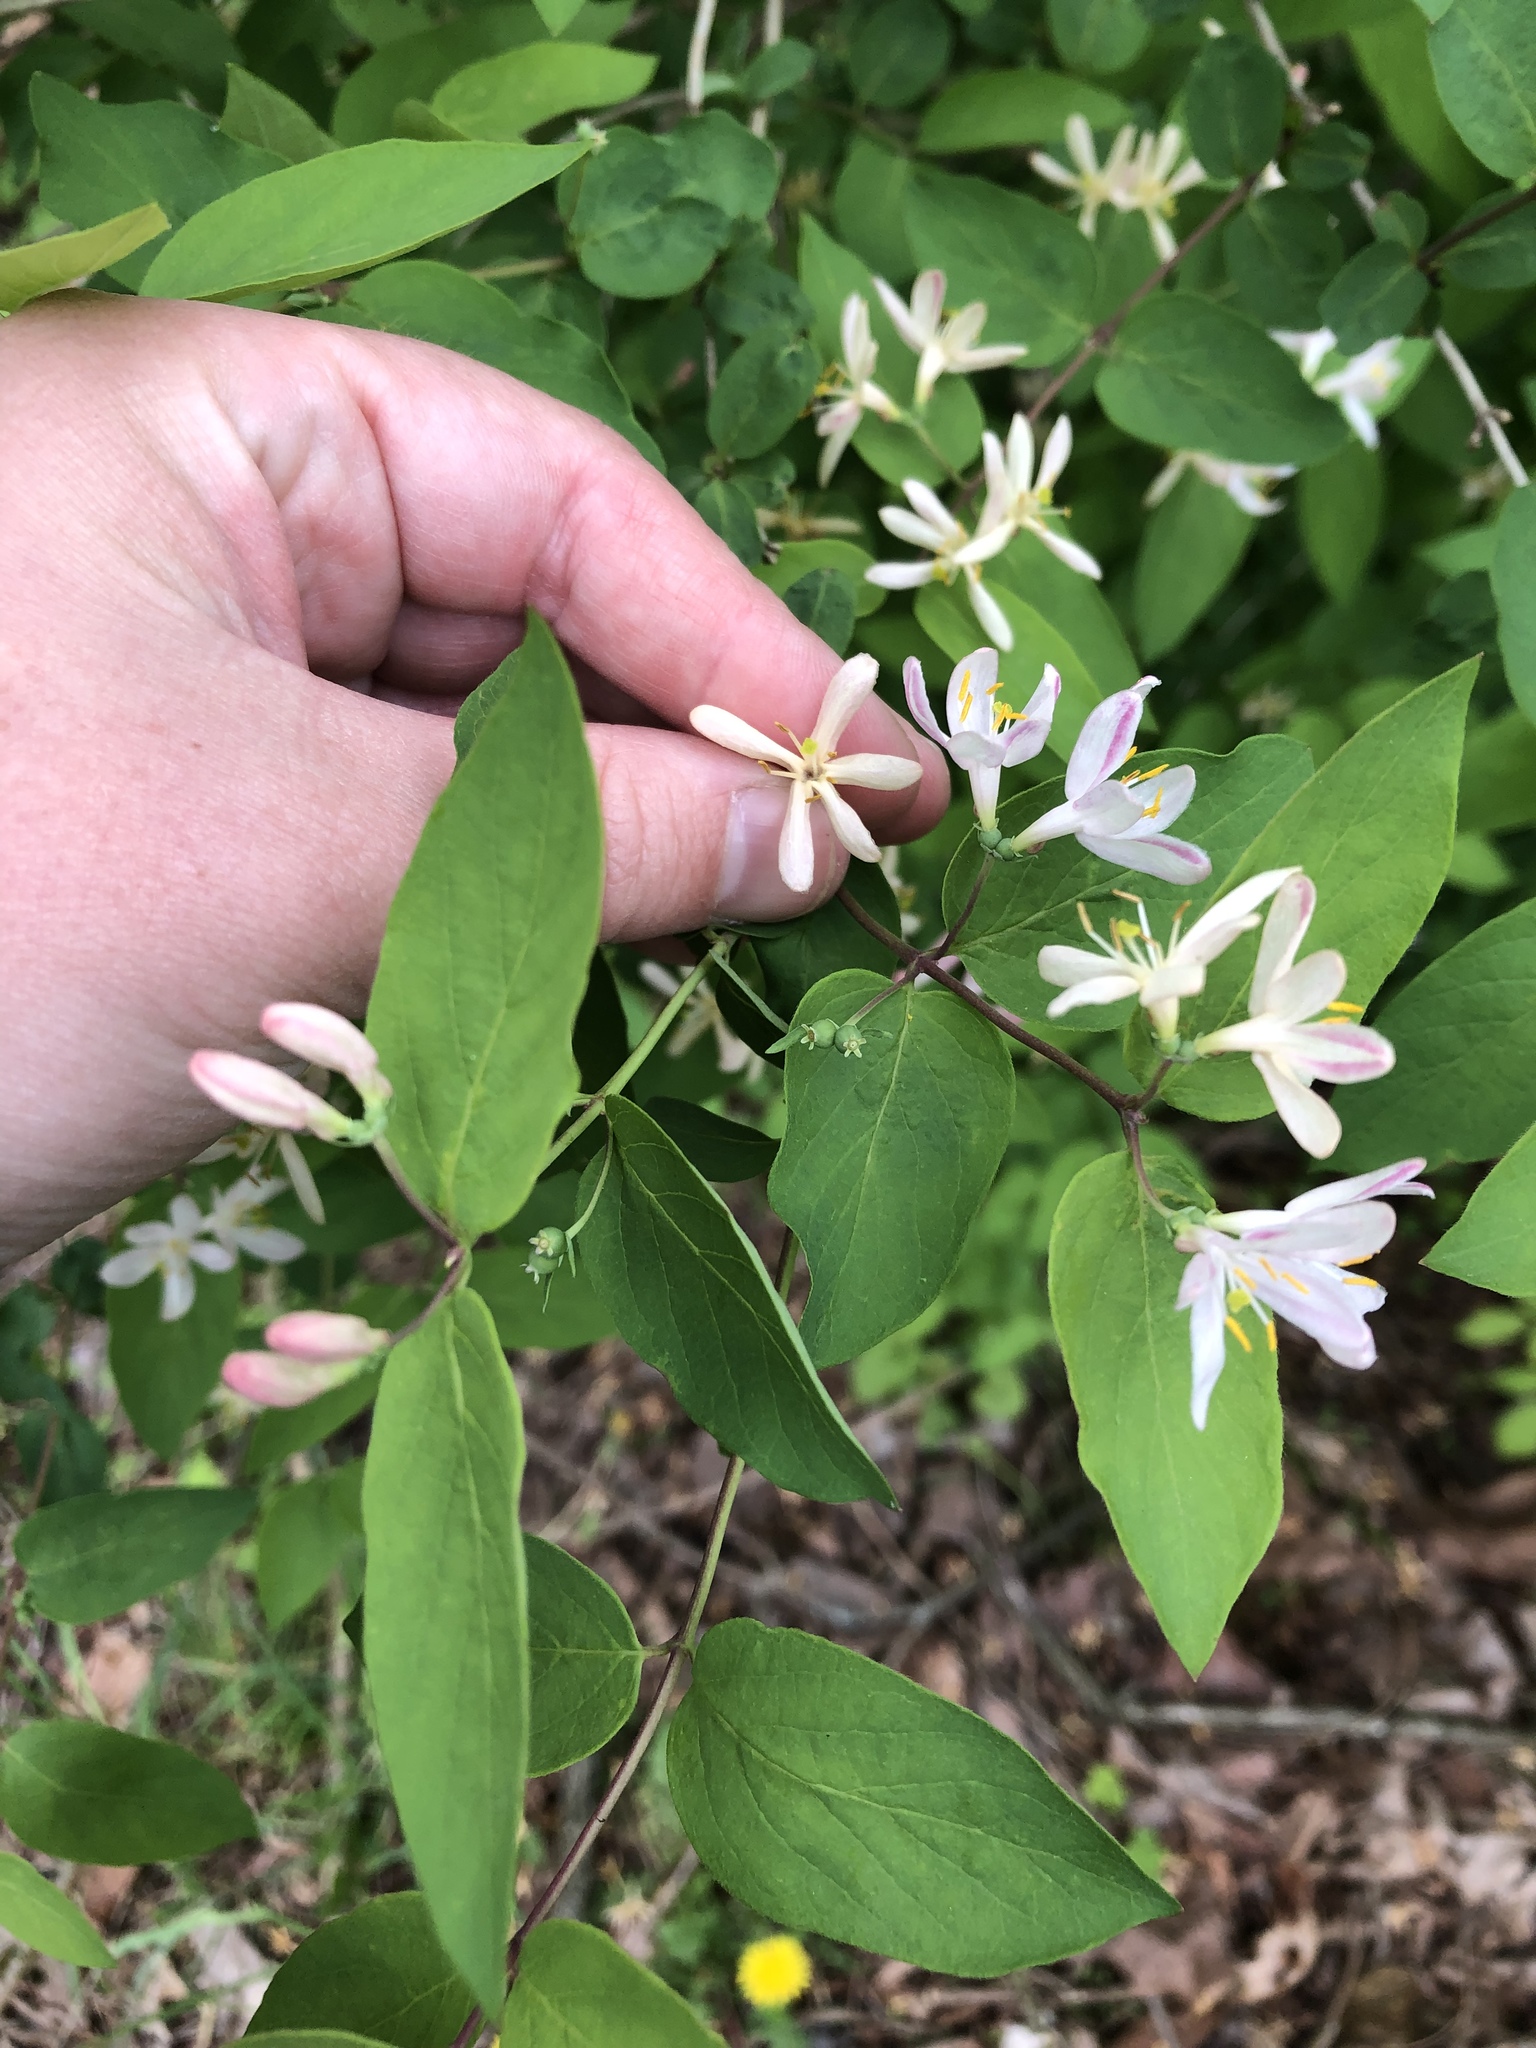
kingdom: Plantae
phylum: Tracheophyta
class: Magnoliopsida
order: Dipsacales
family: Caprifoliaceae
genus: Lonicera
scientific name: Lonicera morrowii
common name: Morrow's honeysuckle
